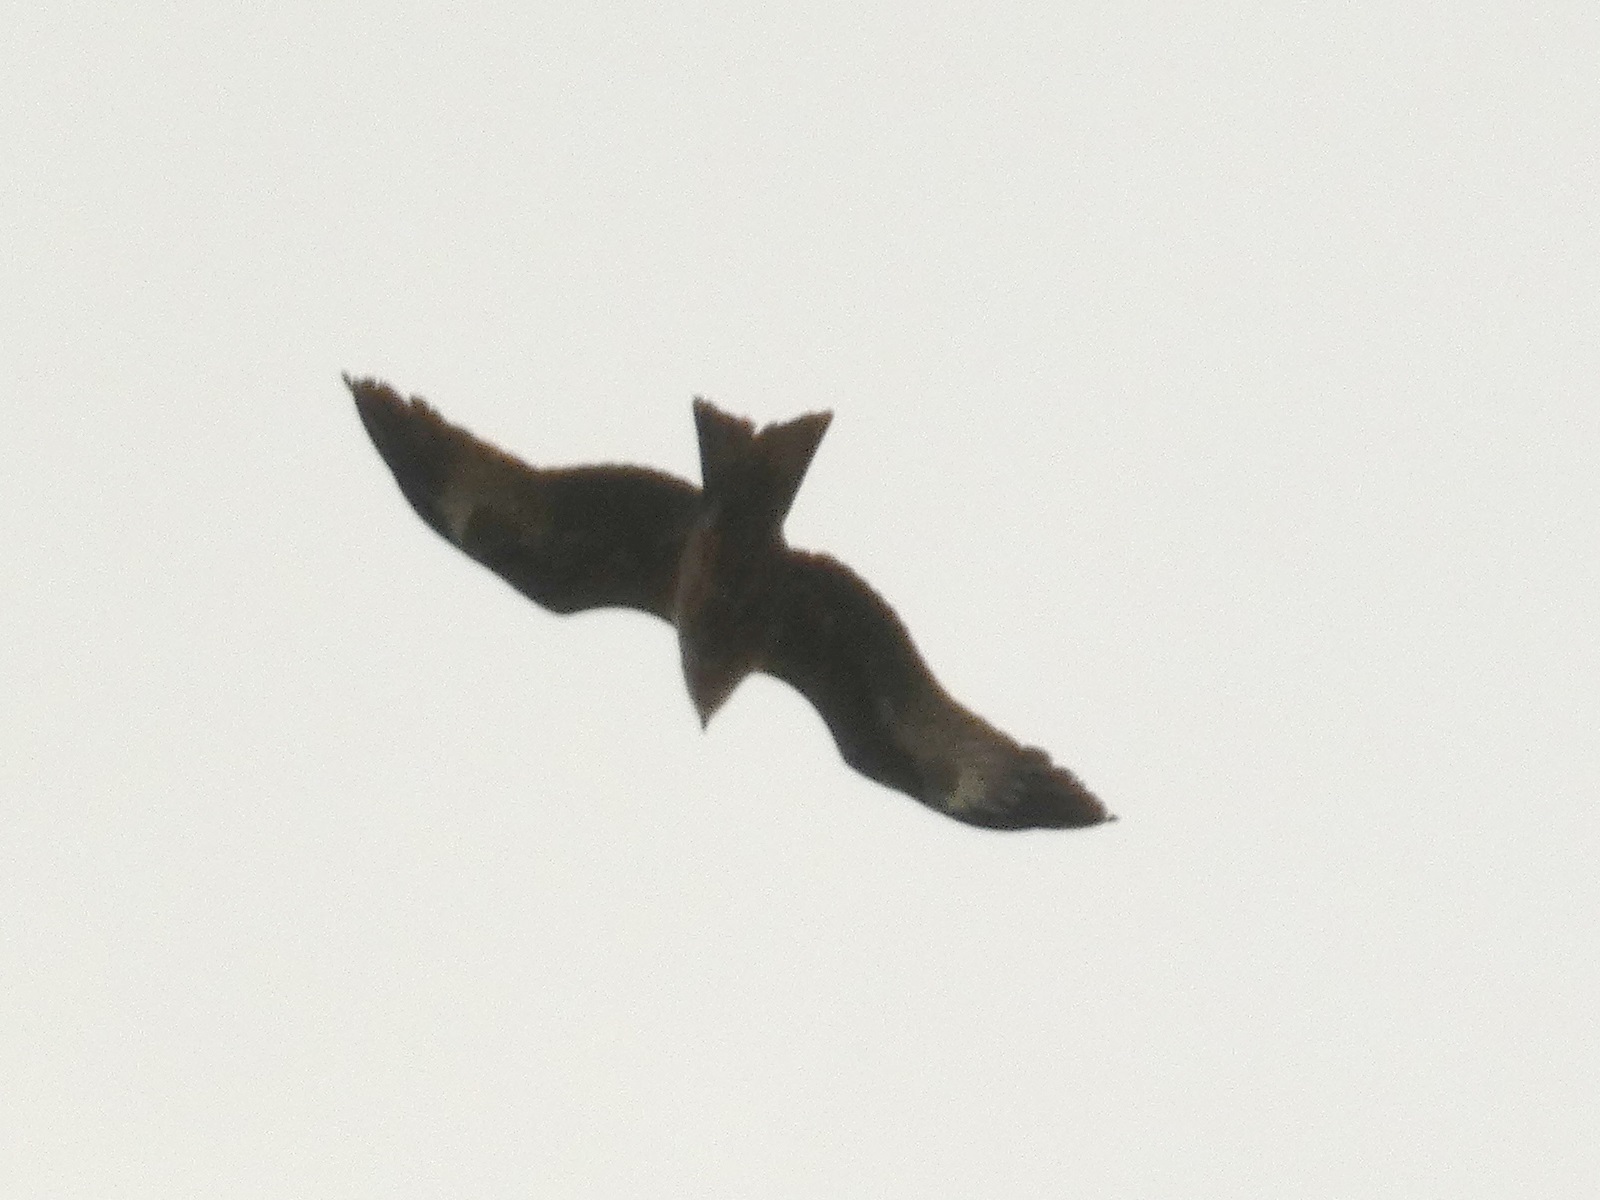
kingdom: Animalia
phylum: Chordata
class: Aves
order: Accipitriformes
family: Accipitridae
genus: Milvus
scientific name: Milvus migrans
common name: Black kite
